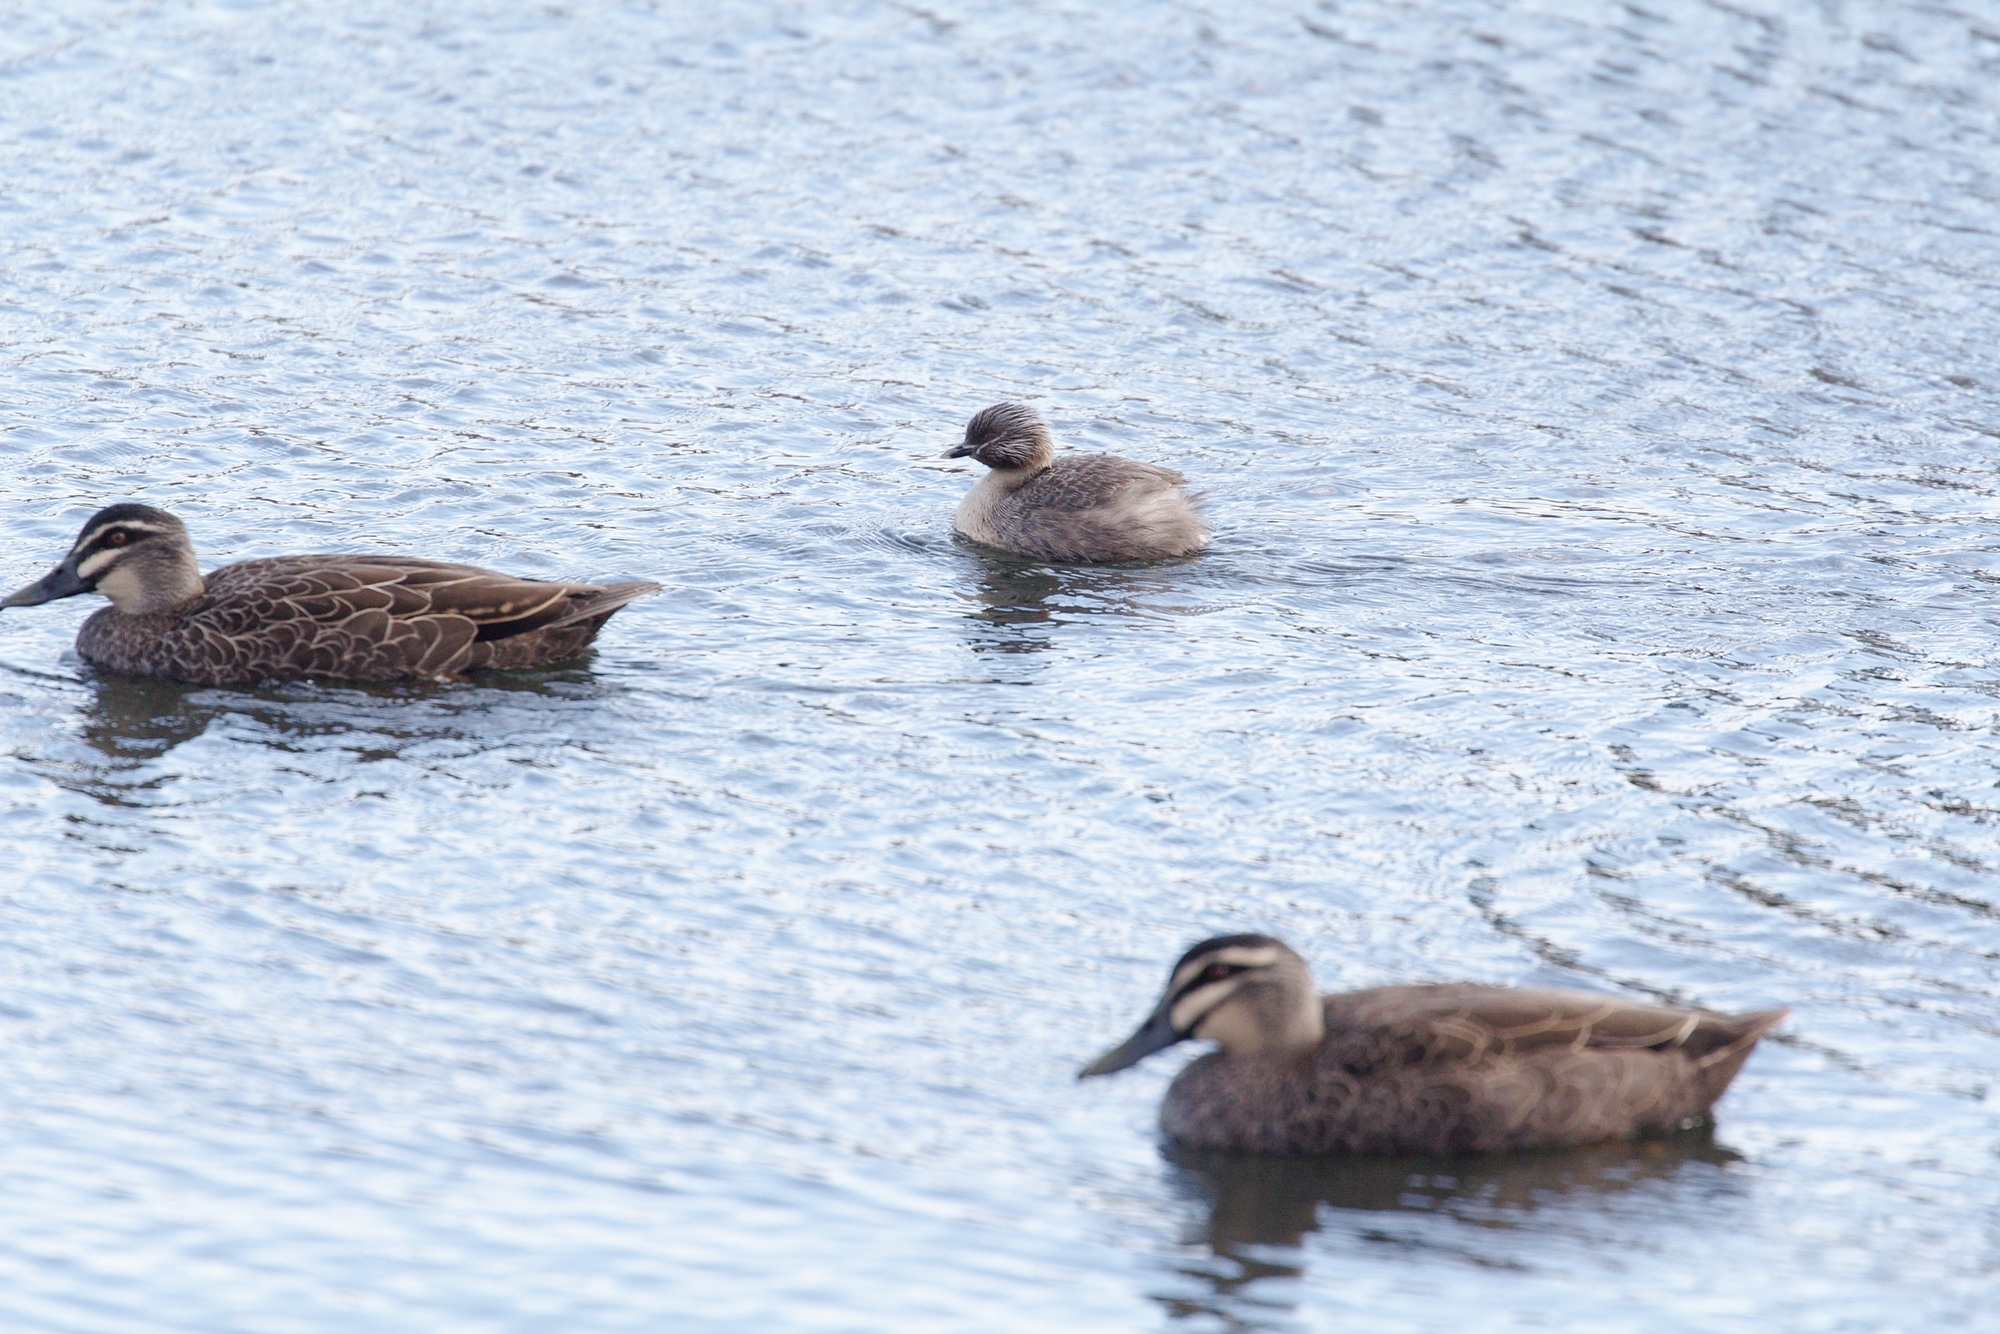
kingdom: Animalia
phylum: Chordata
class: Aves
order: Podicipediformes
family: Podicipedidae
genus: Poliocephalus
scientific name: Poliocephalus poliocephalus
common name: Hoary-headed grebe
